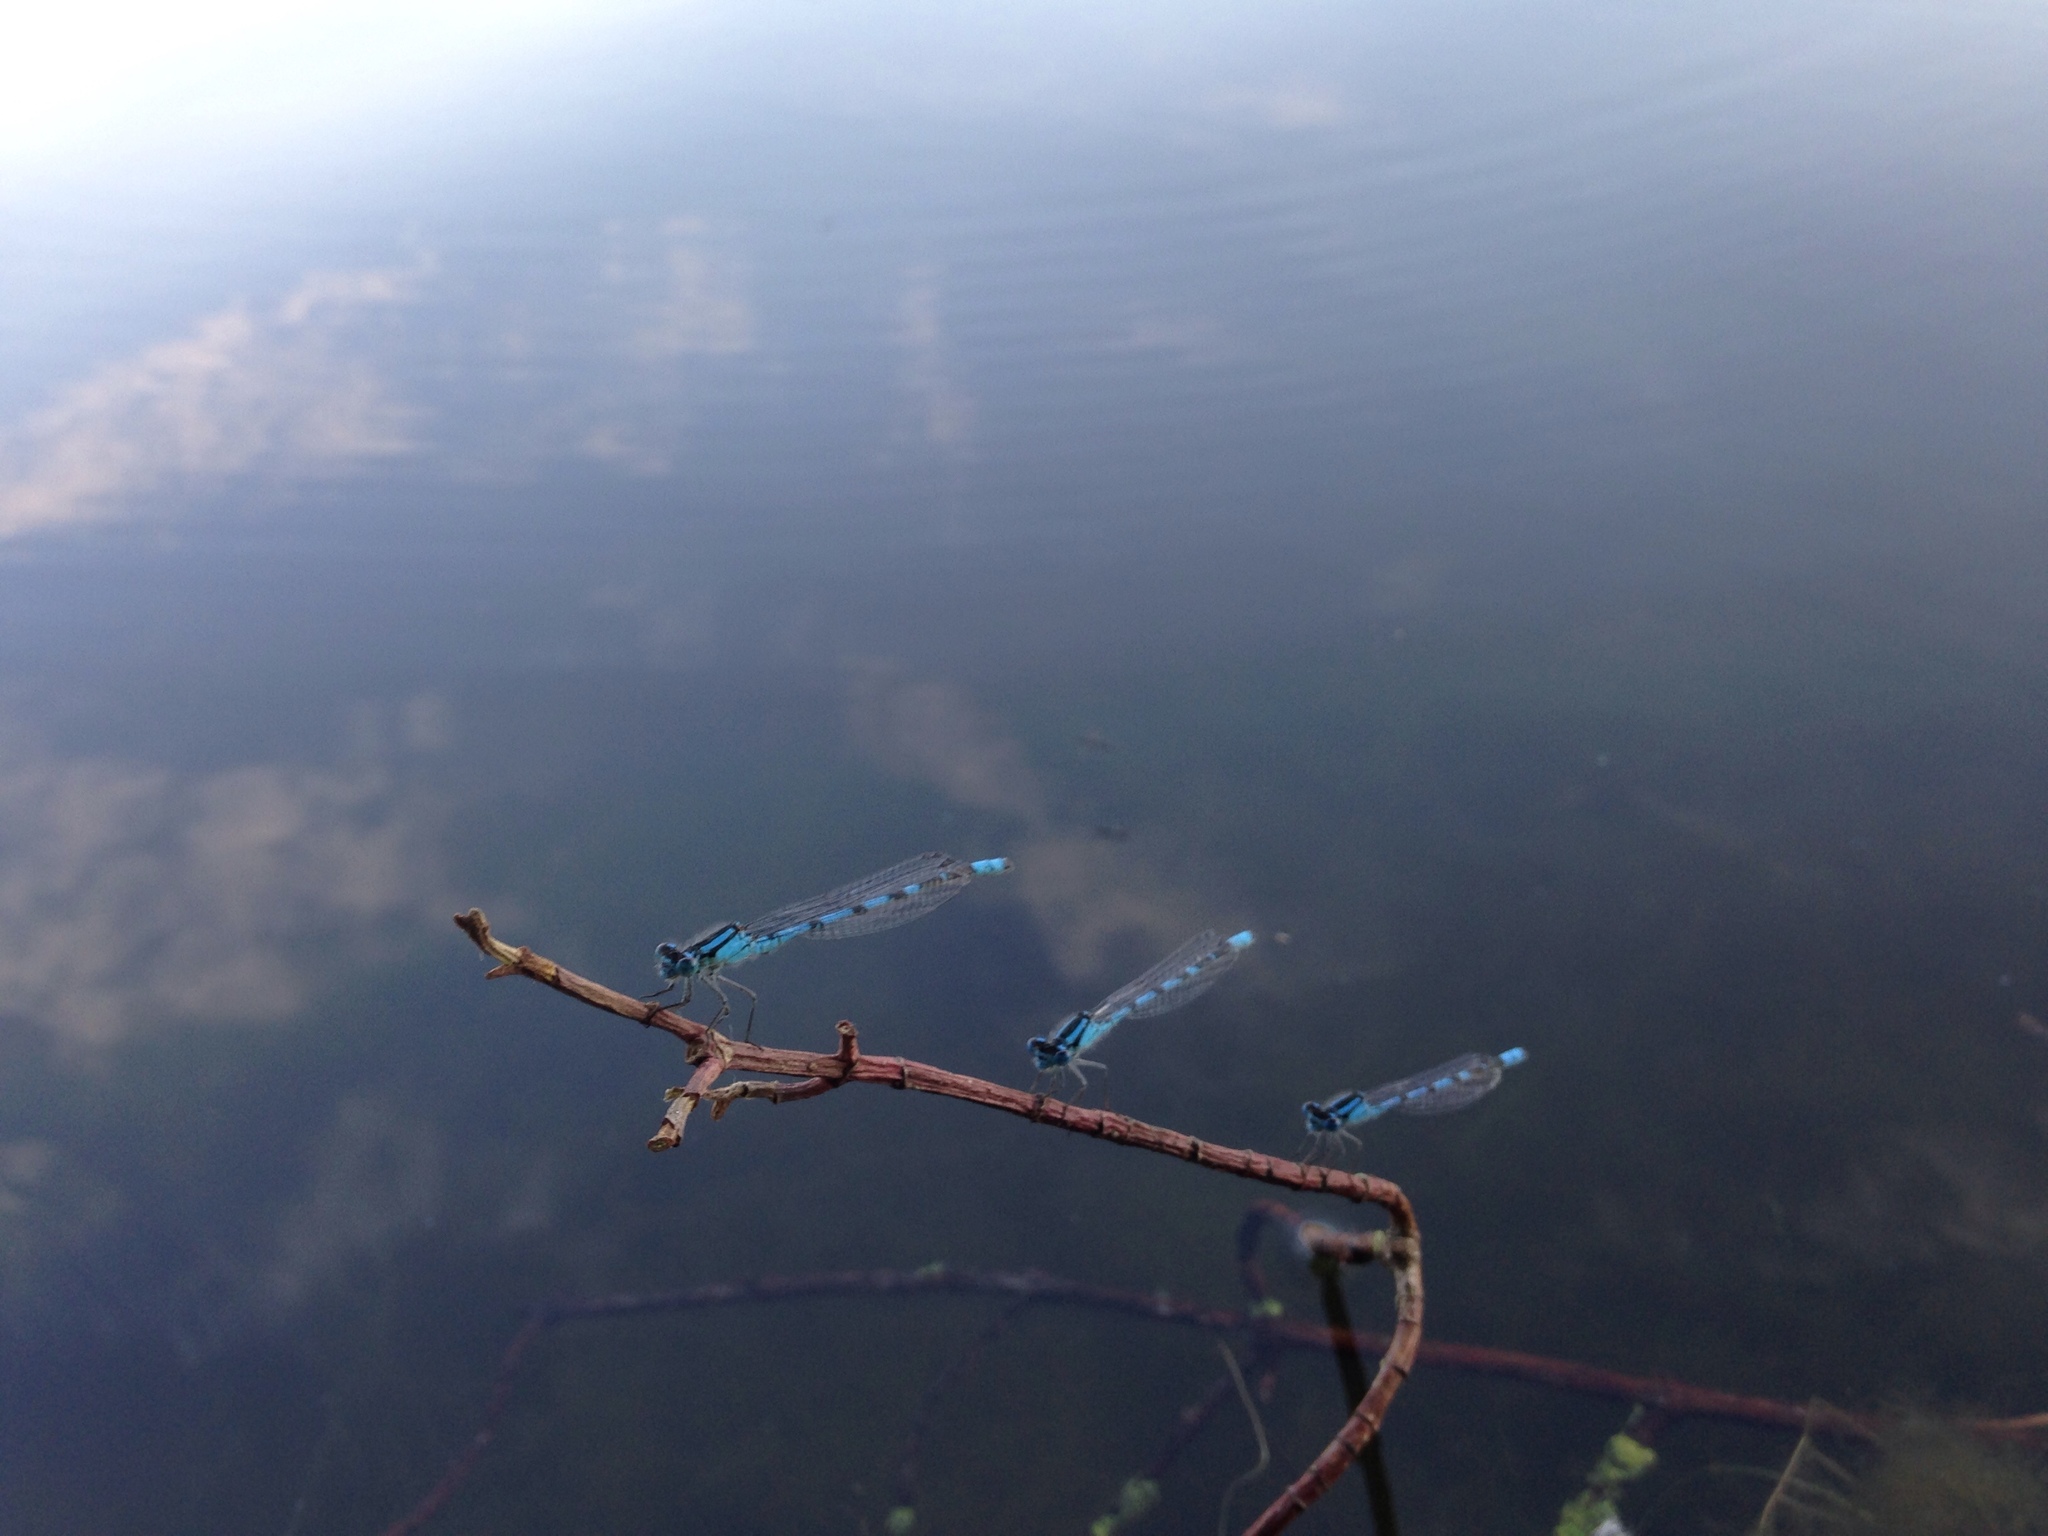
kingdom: Animalia
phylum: Arthropoda
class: Insecta
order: Odonata
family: Coenagrionidae
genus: Enallagma
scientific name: Enallagma cyathigerum
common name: Common blue damselfly
